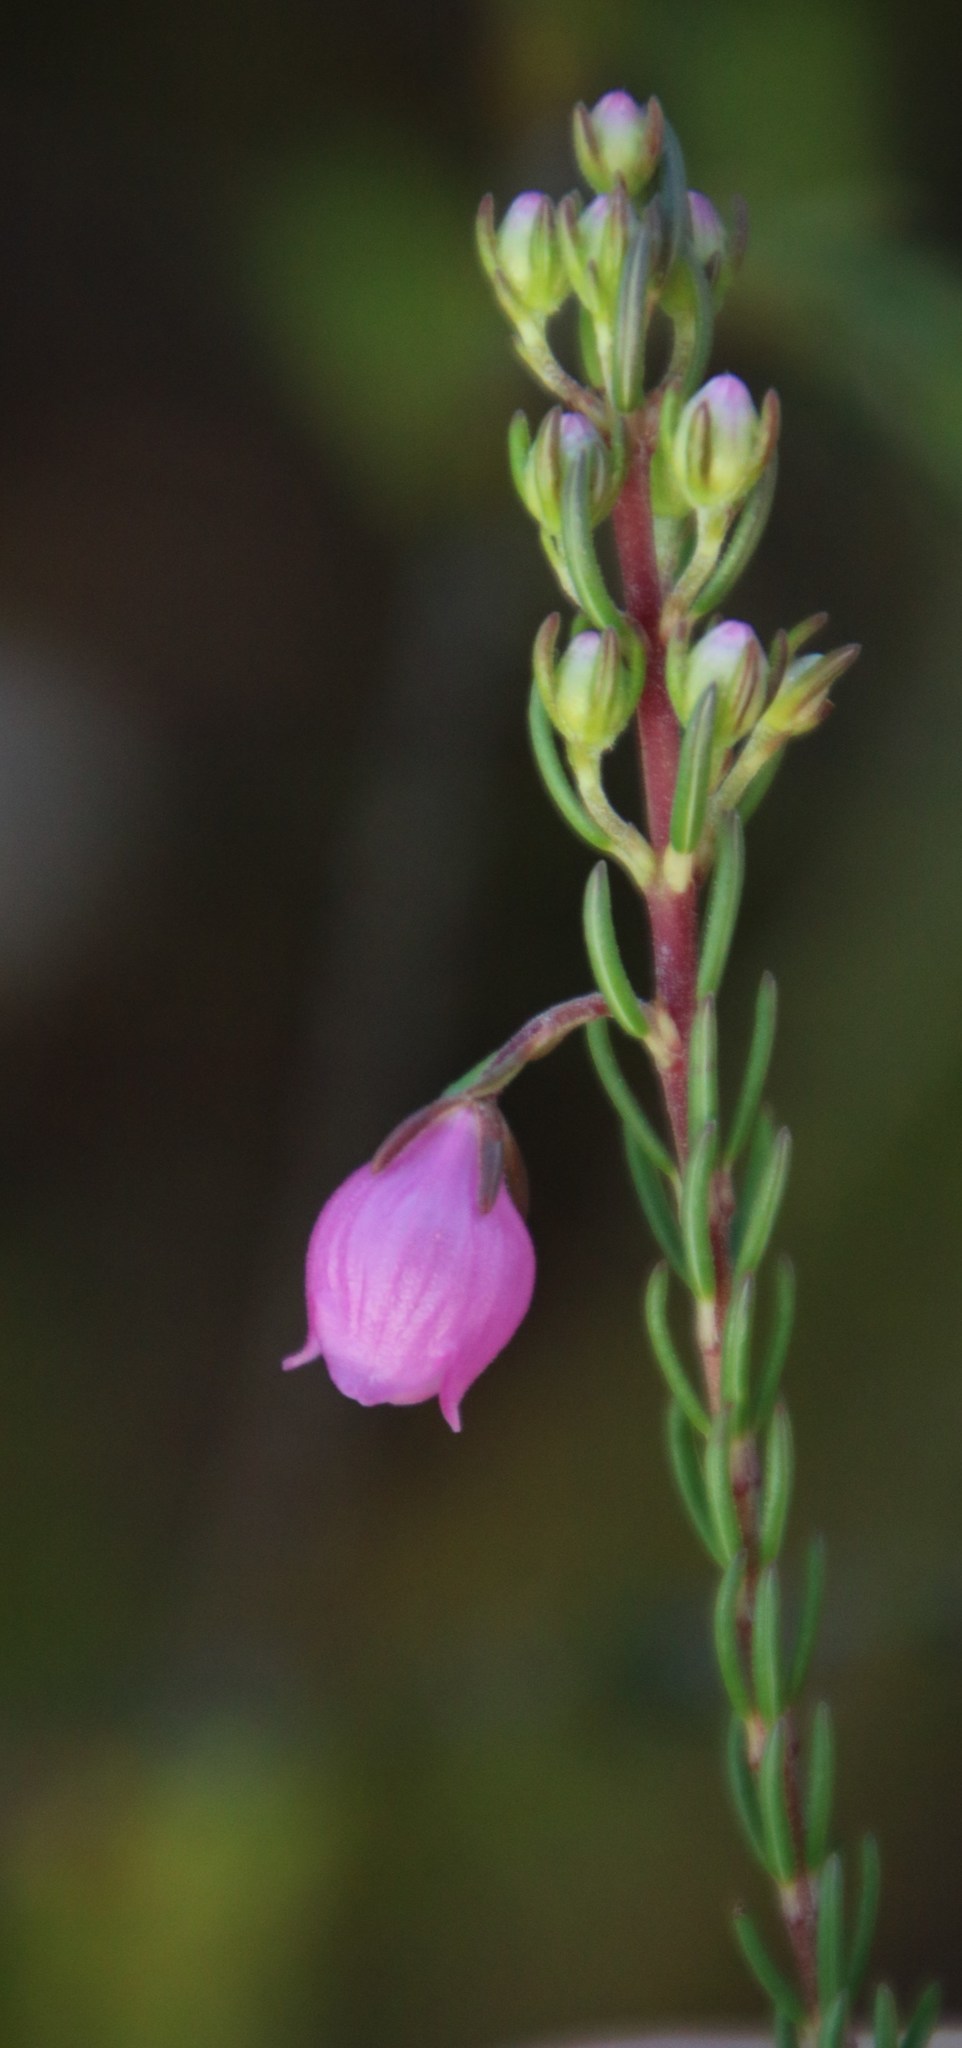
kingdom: Plantae
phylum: Tracheophyta
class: Magnoliopsida
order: Ericales
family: Ericaceae
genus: Erica
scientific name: Erica viscaria
